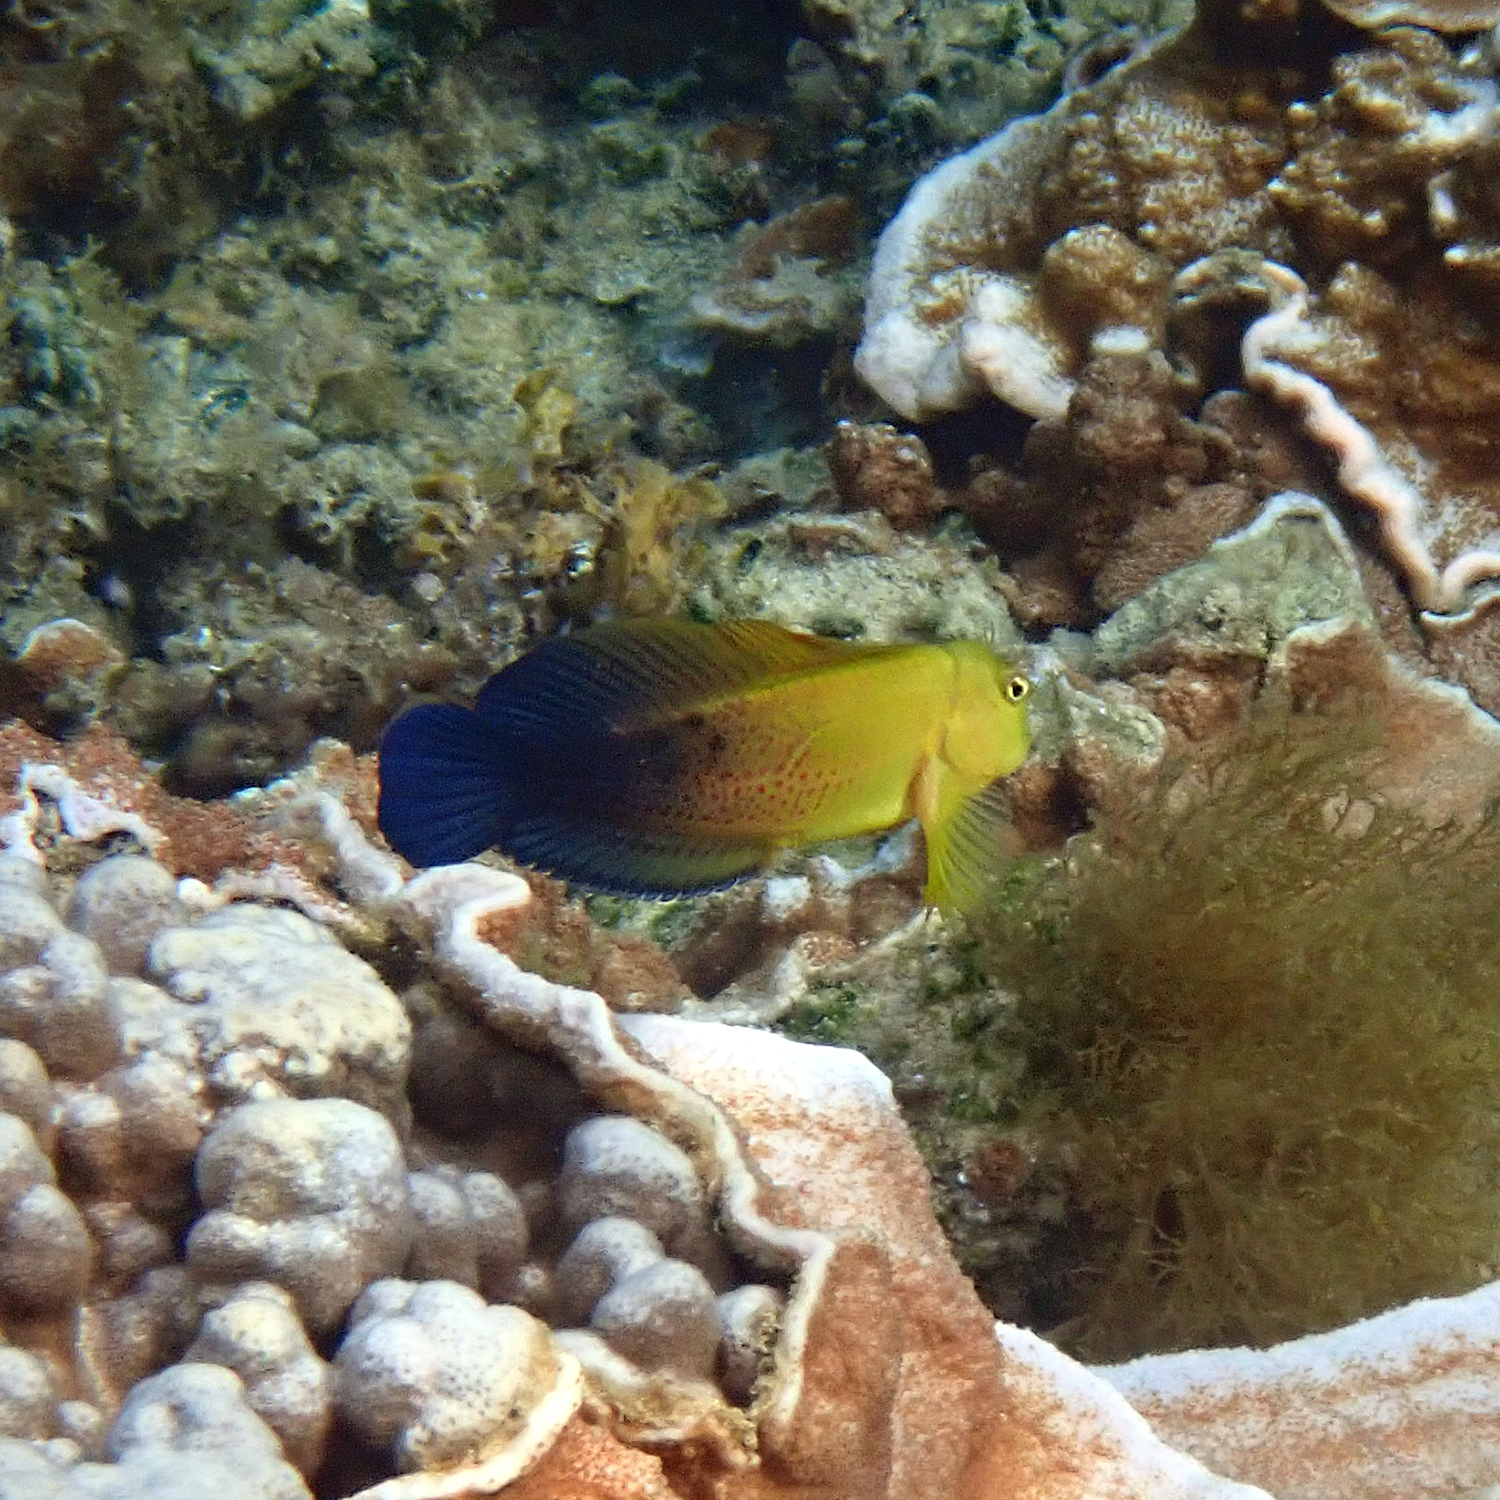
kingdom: Animalia
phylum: Chordata
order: Perciformes
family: Blenniidae
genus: Cirripectes
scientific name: Cirripectes chelomatus
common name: Lady musgrave blenny
